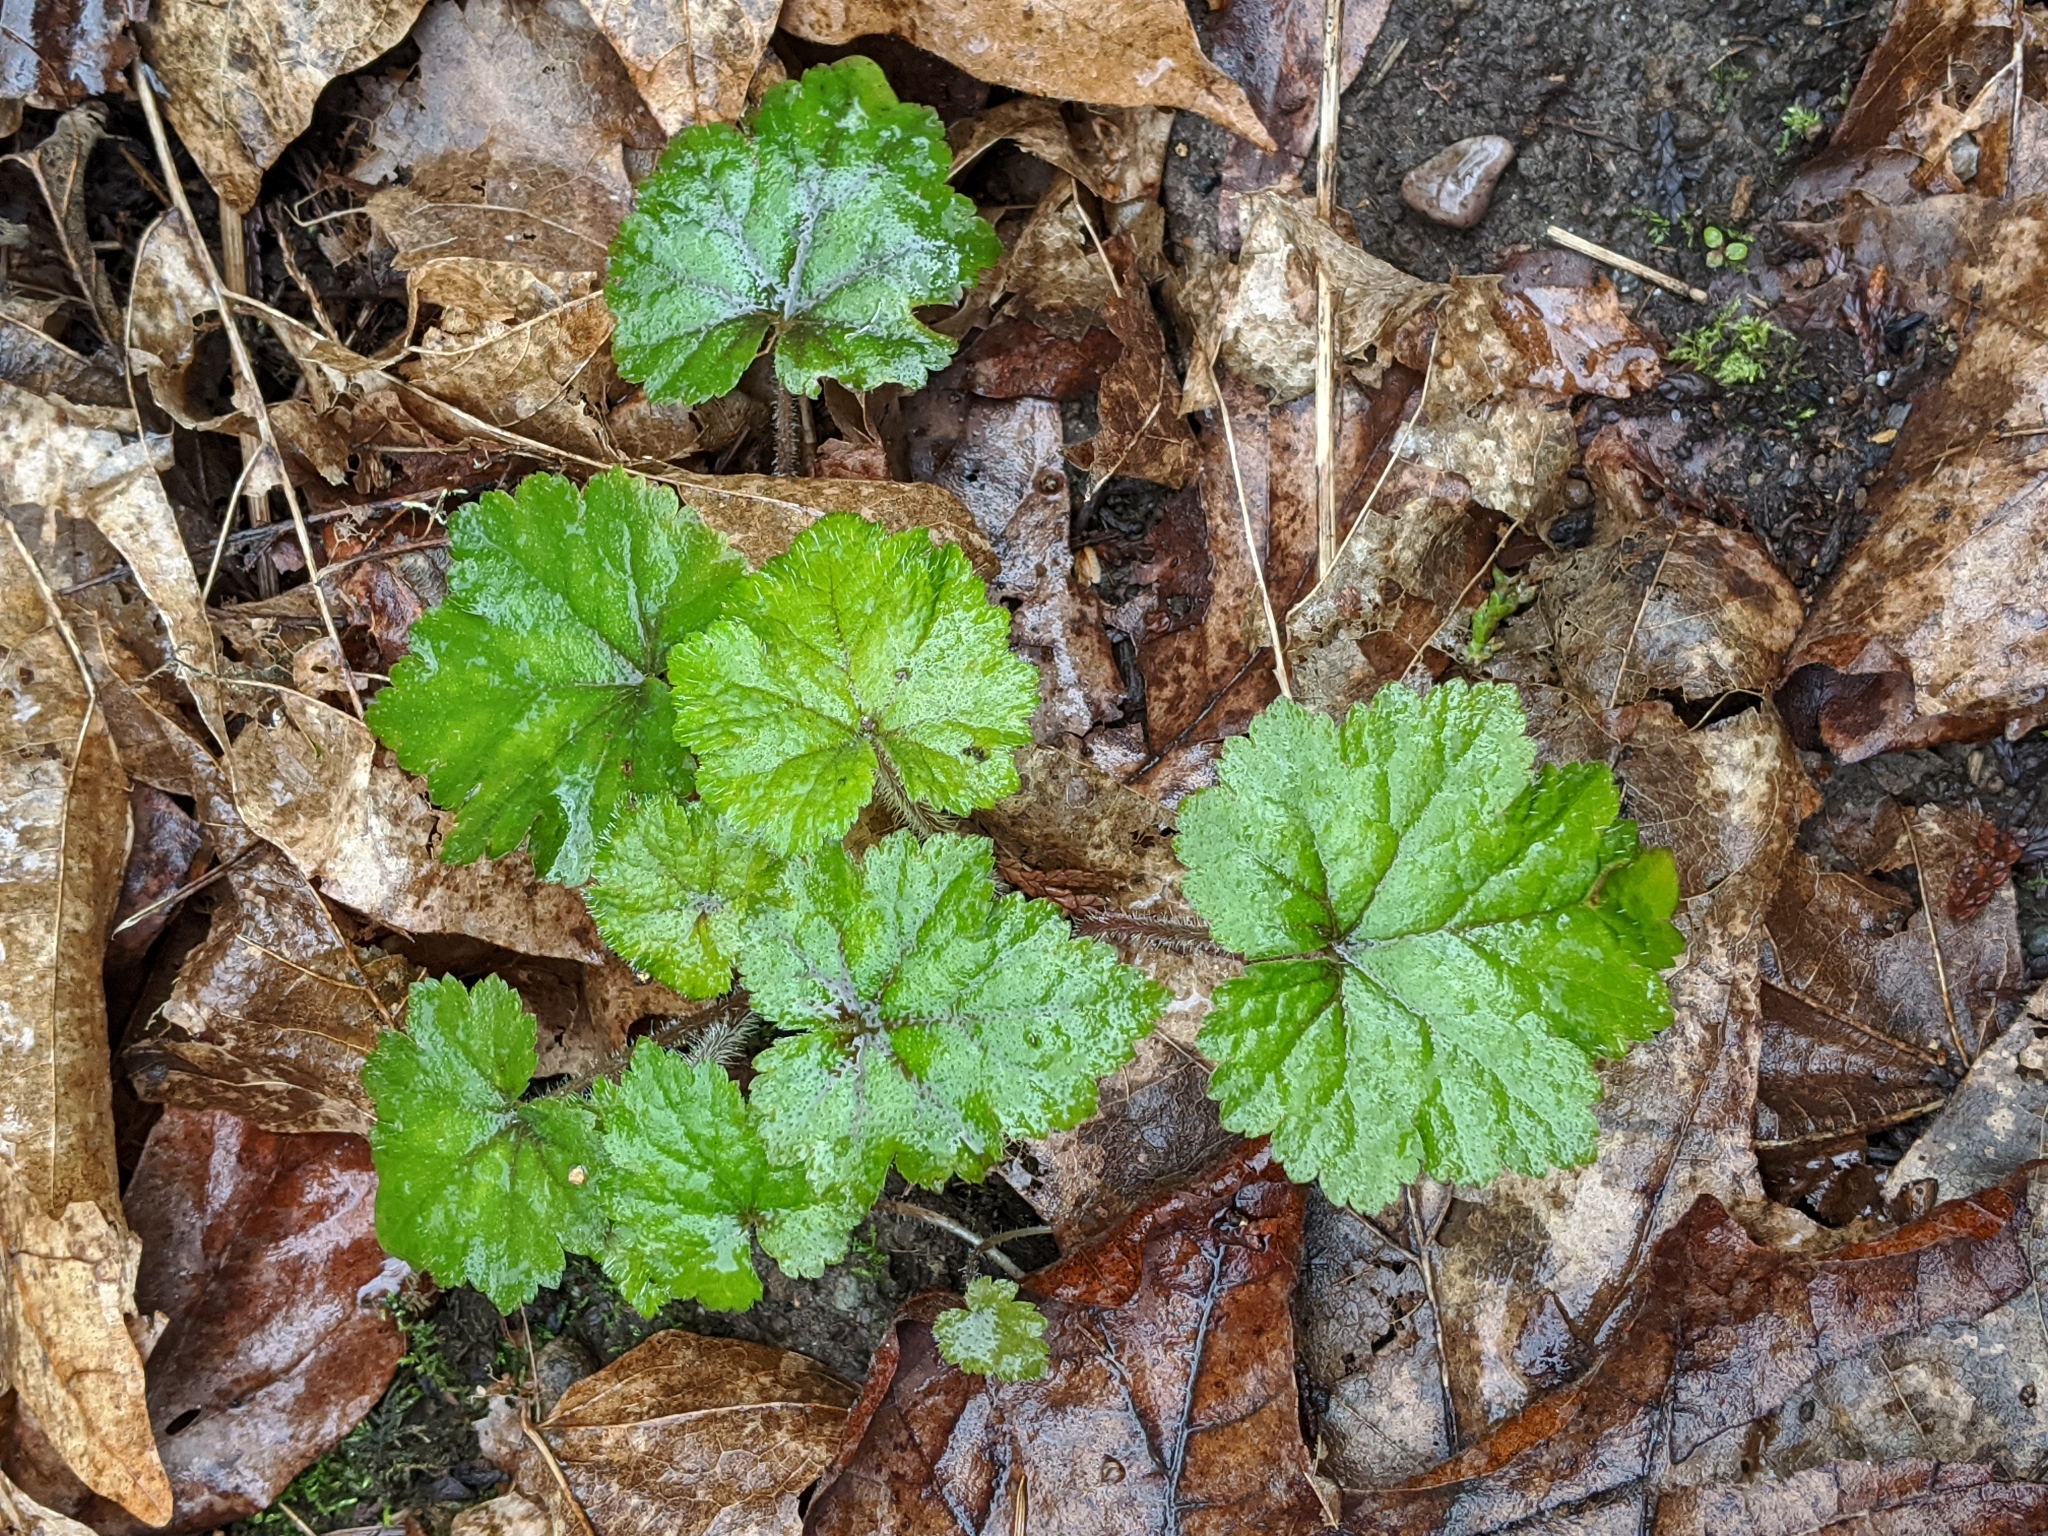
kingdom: Plantae
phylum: Tracheophyta
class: Magnoliopsida
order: Saxifragales
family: Saxifragaceae
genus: Tellima
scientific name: Tellima grandiflora
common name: Fringecups
